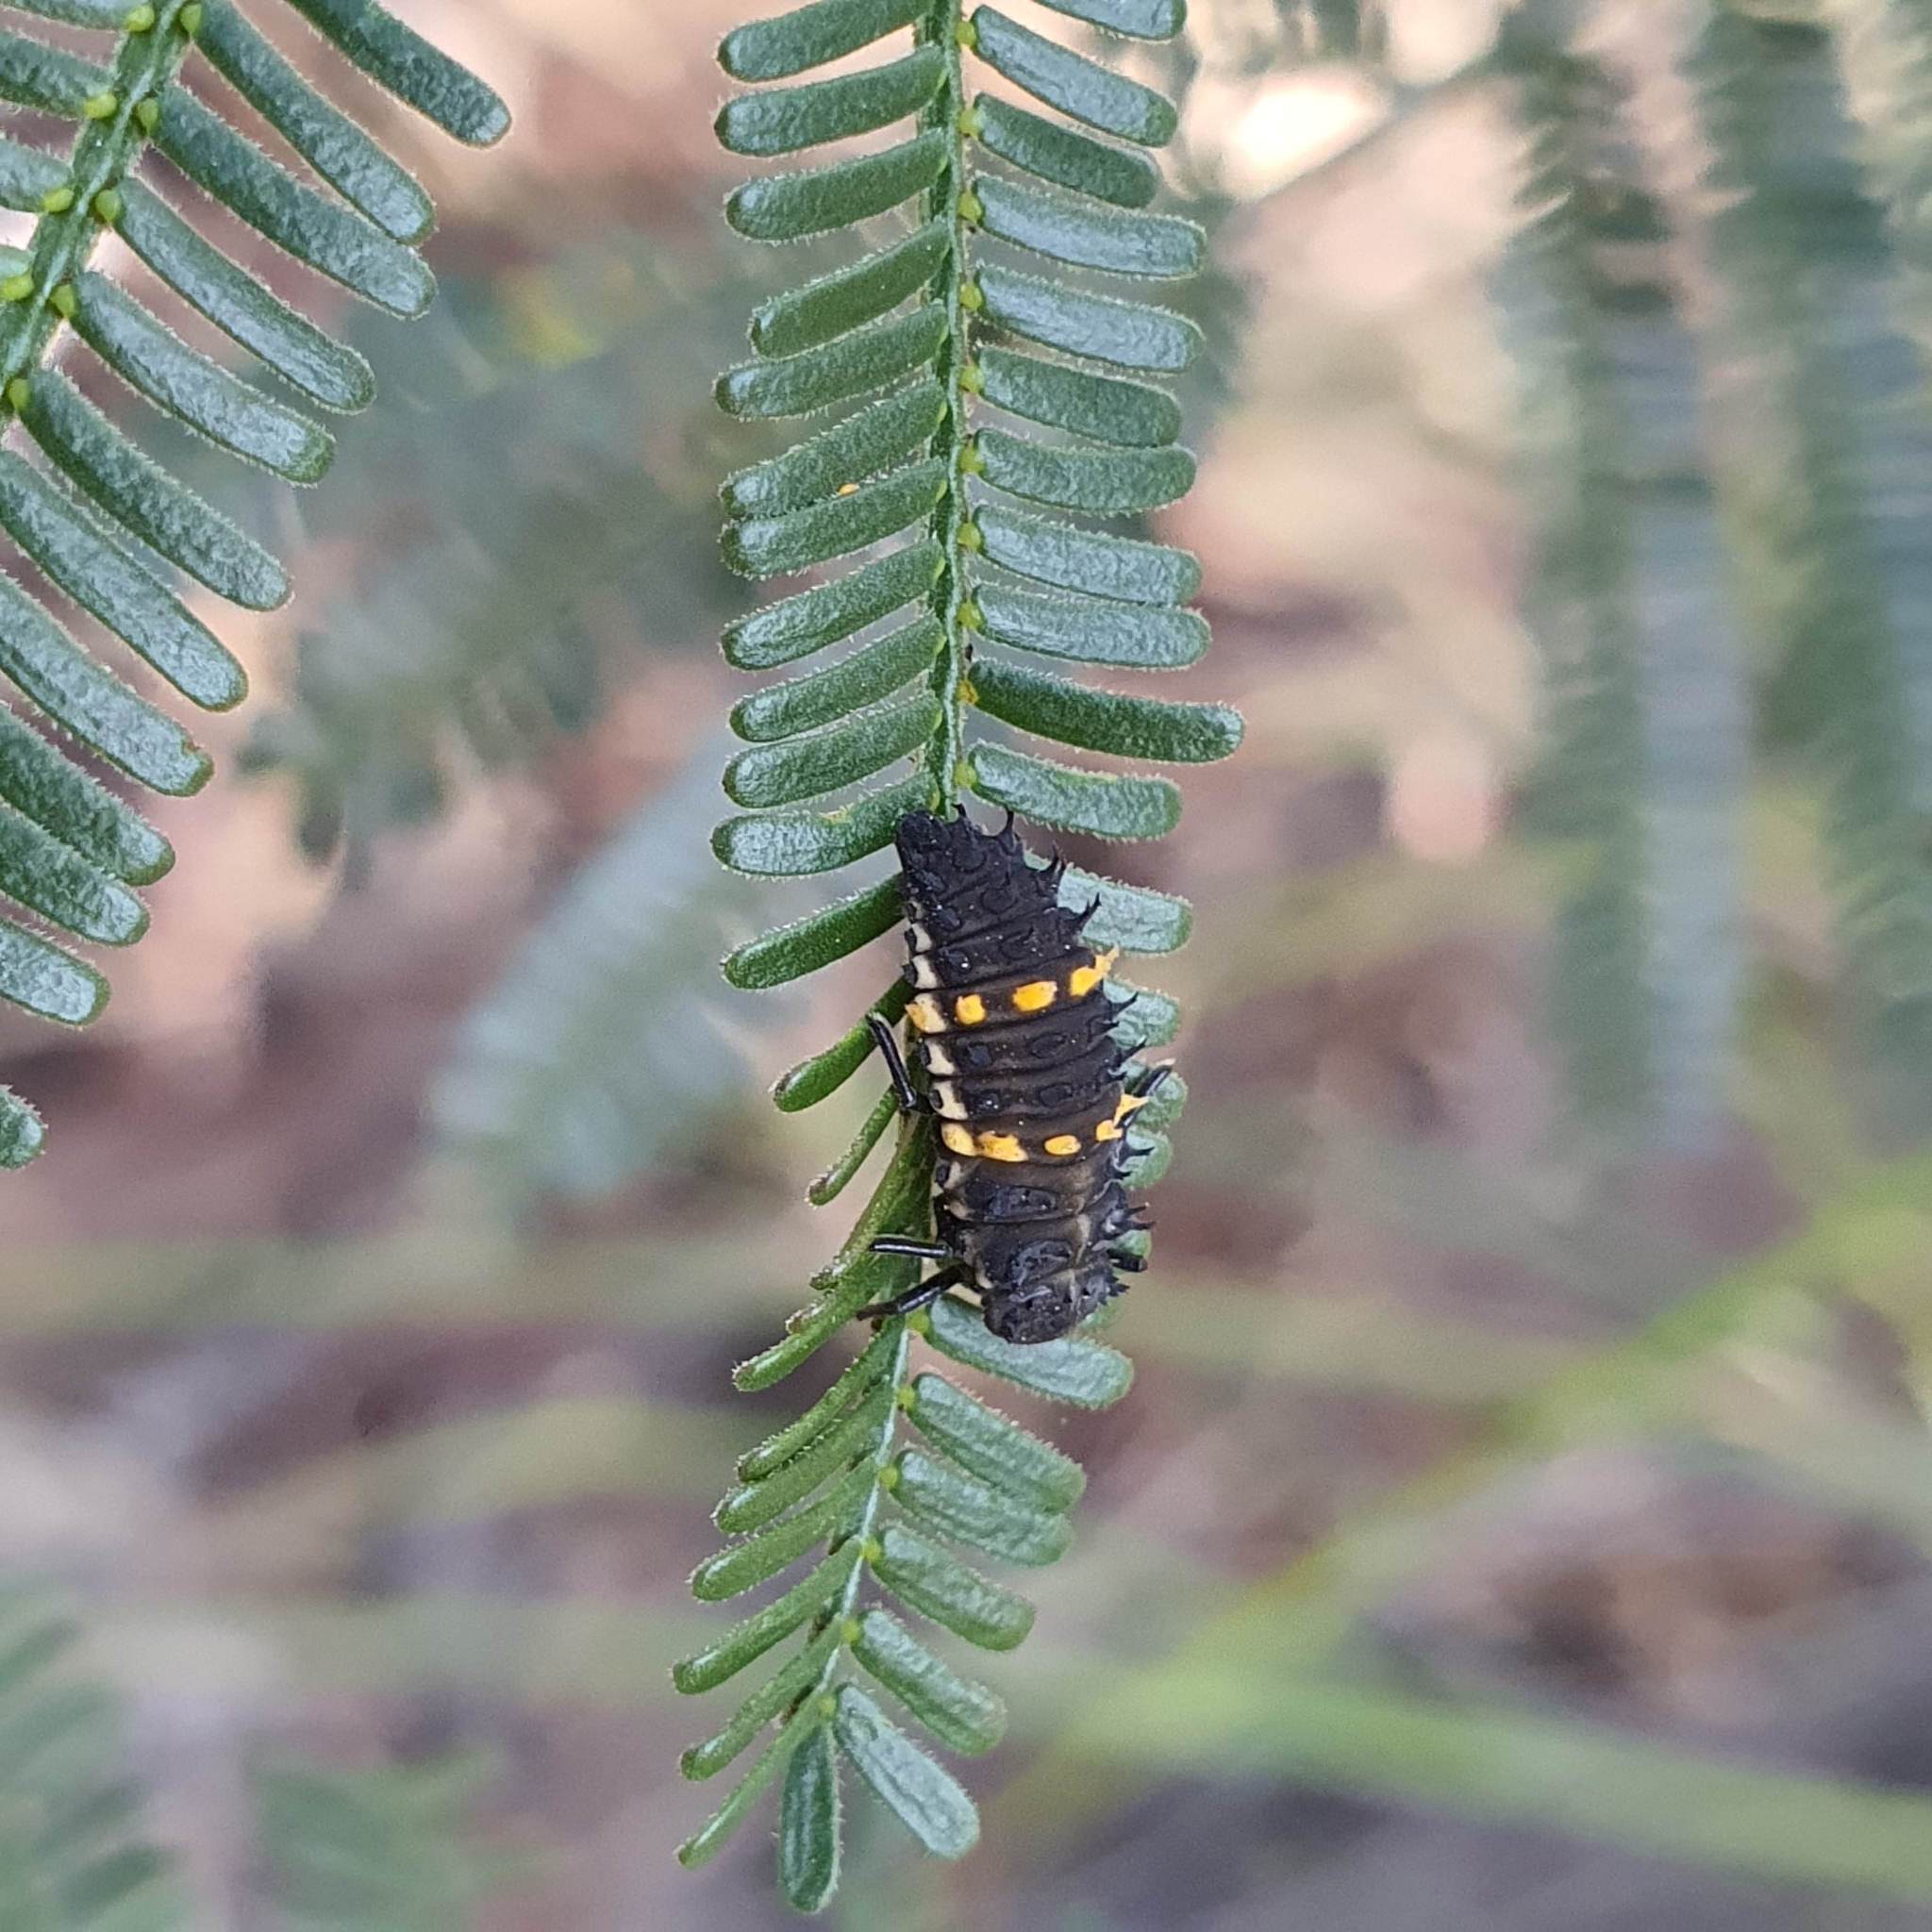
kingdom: Animalia
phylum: Arthropoda
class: Insecta
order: Coleoptera
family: Coccinellidae
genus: Harmonia
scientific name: Harmonia conformis
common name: Common spotted ladybird beetle
